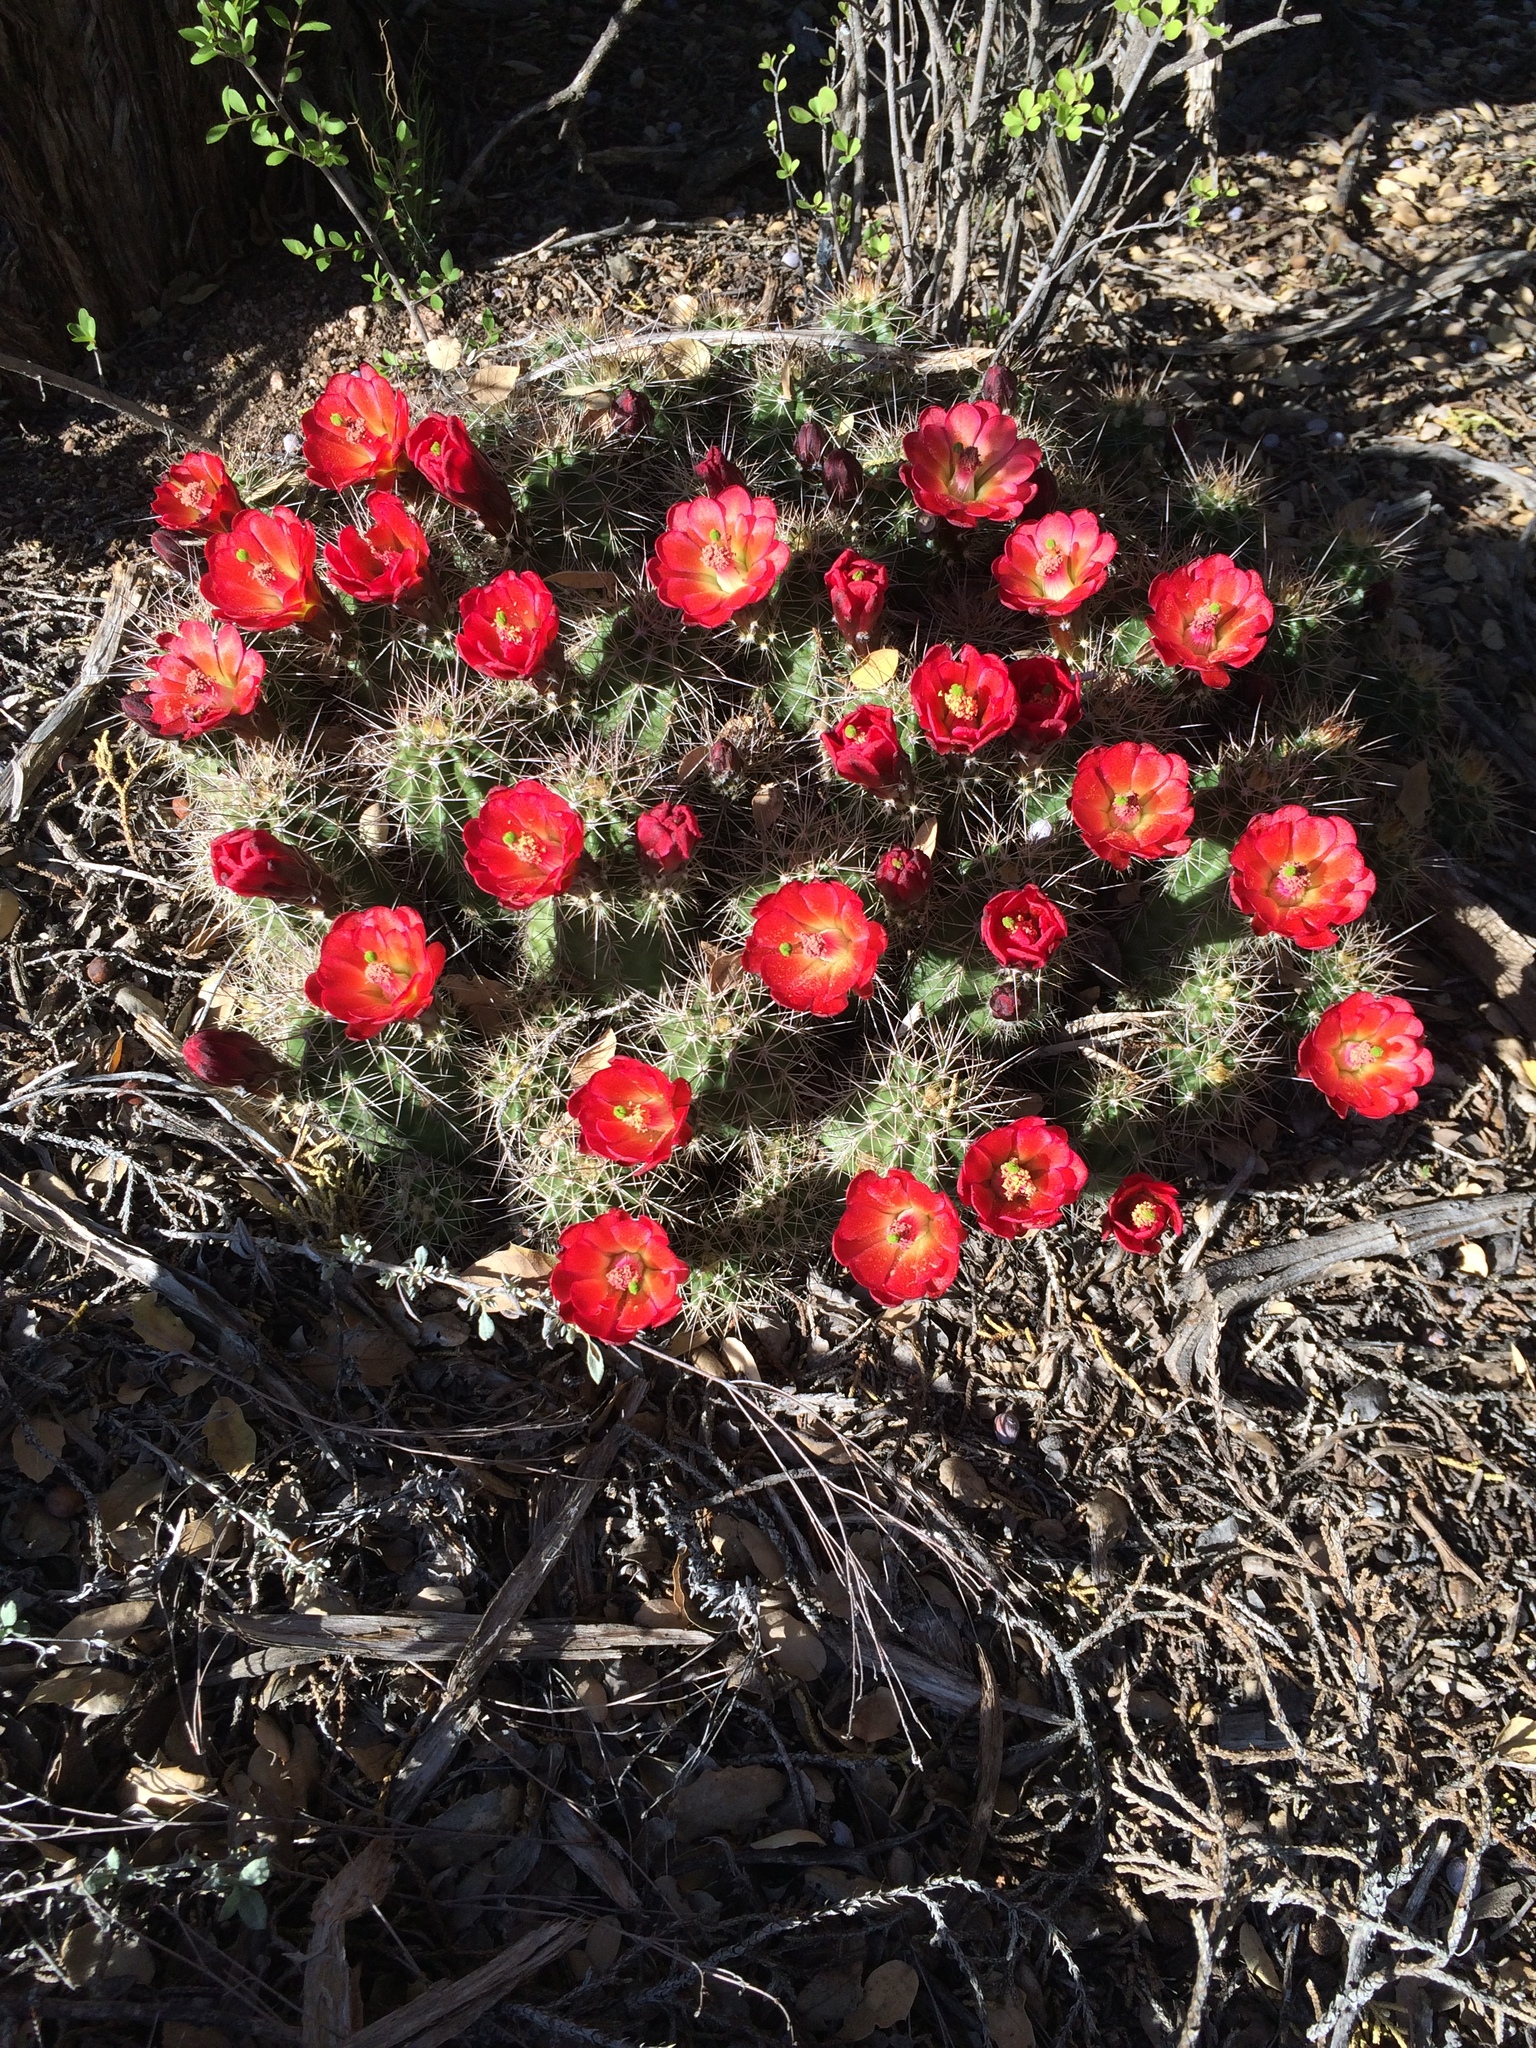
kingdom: Plantae
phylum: Tracheophyta
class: Magnoliopsida
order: Caryophyllales
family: Cactaceae
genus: Echinocereus
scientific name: Echinocereus bakeri
